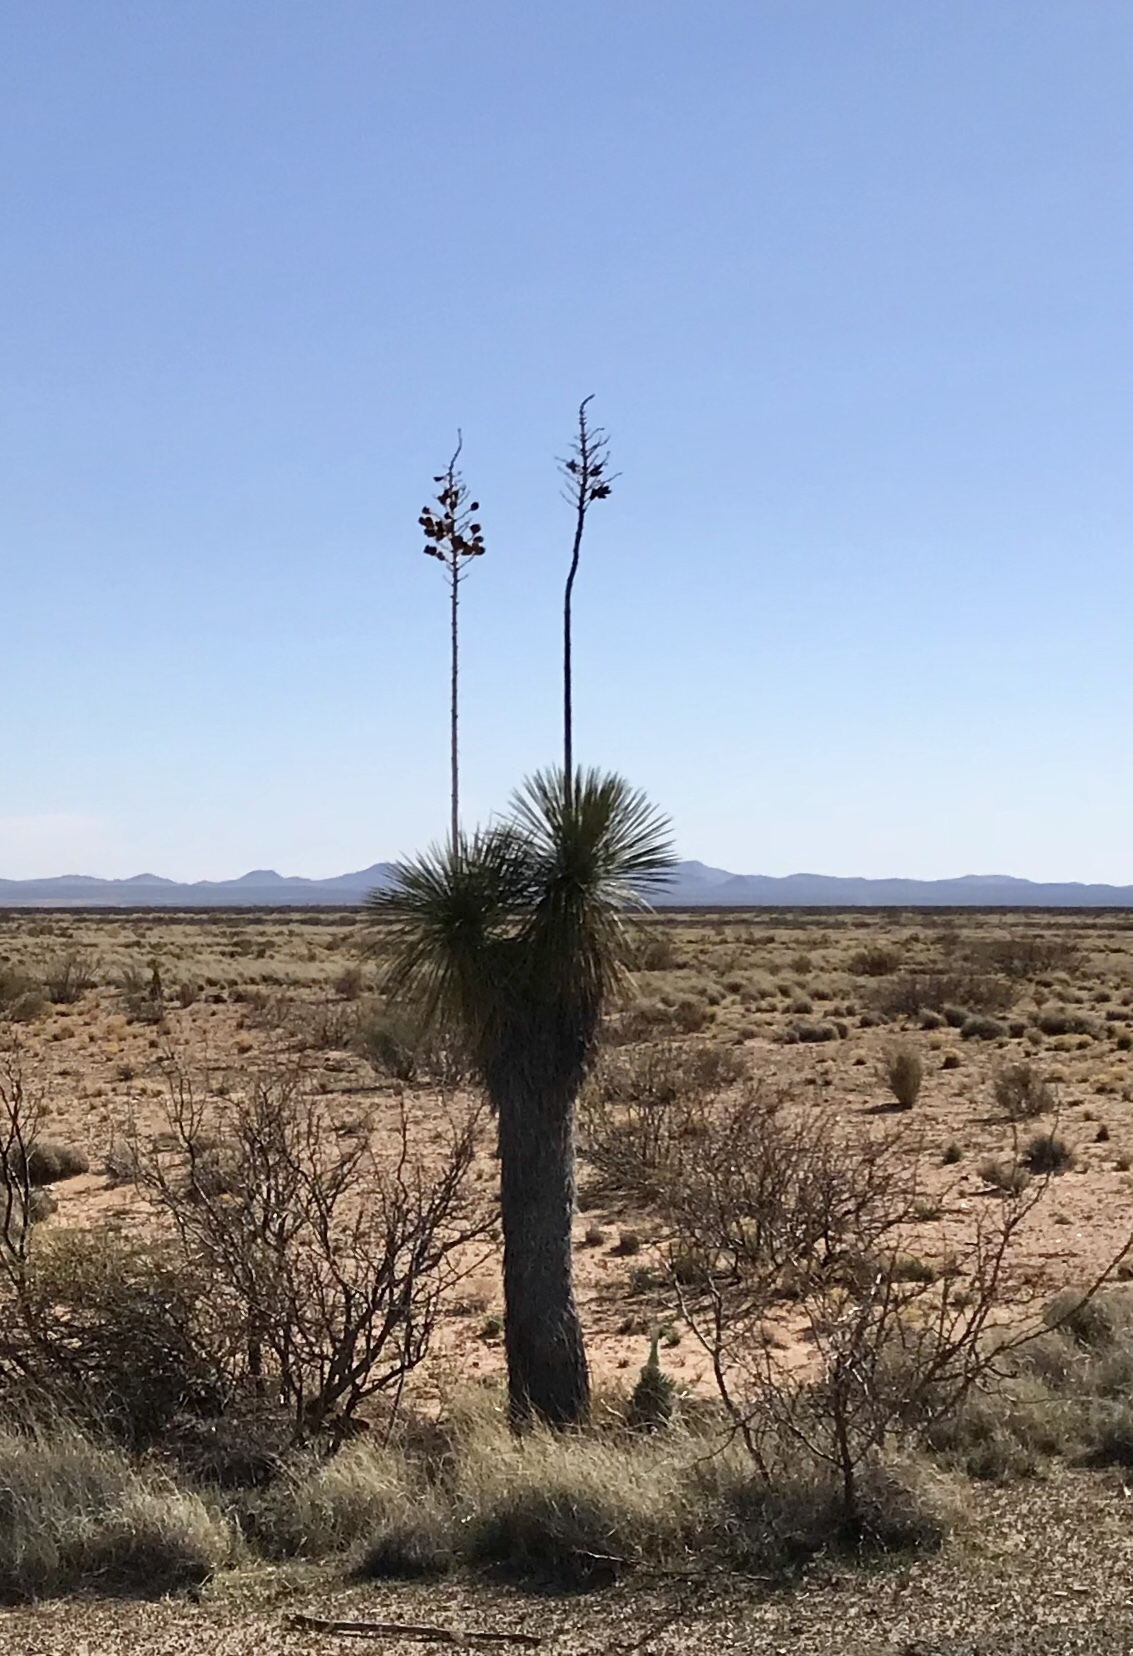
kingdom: Plantae
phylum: Tracheophyta
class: Liliopsida
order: Asparagales
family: Asparagaceae
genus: Yucca
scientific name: Yucca elata
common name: Palmella
